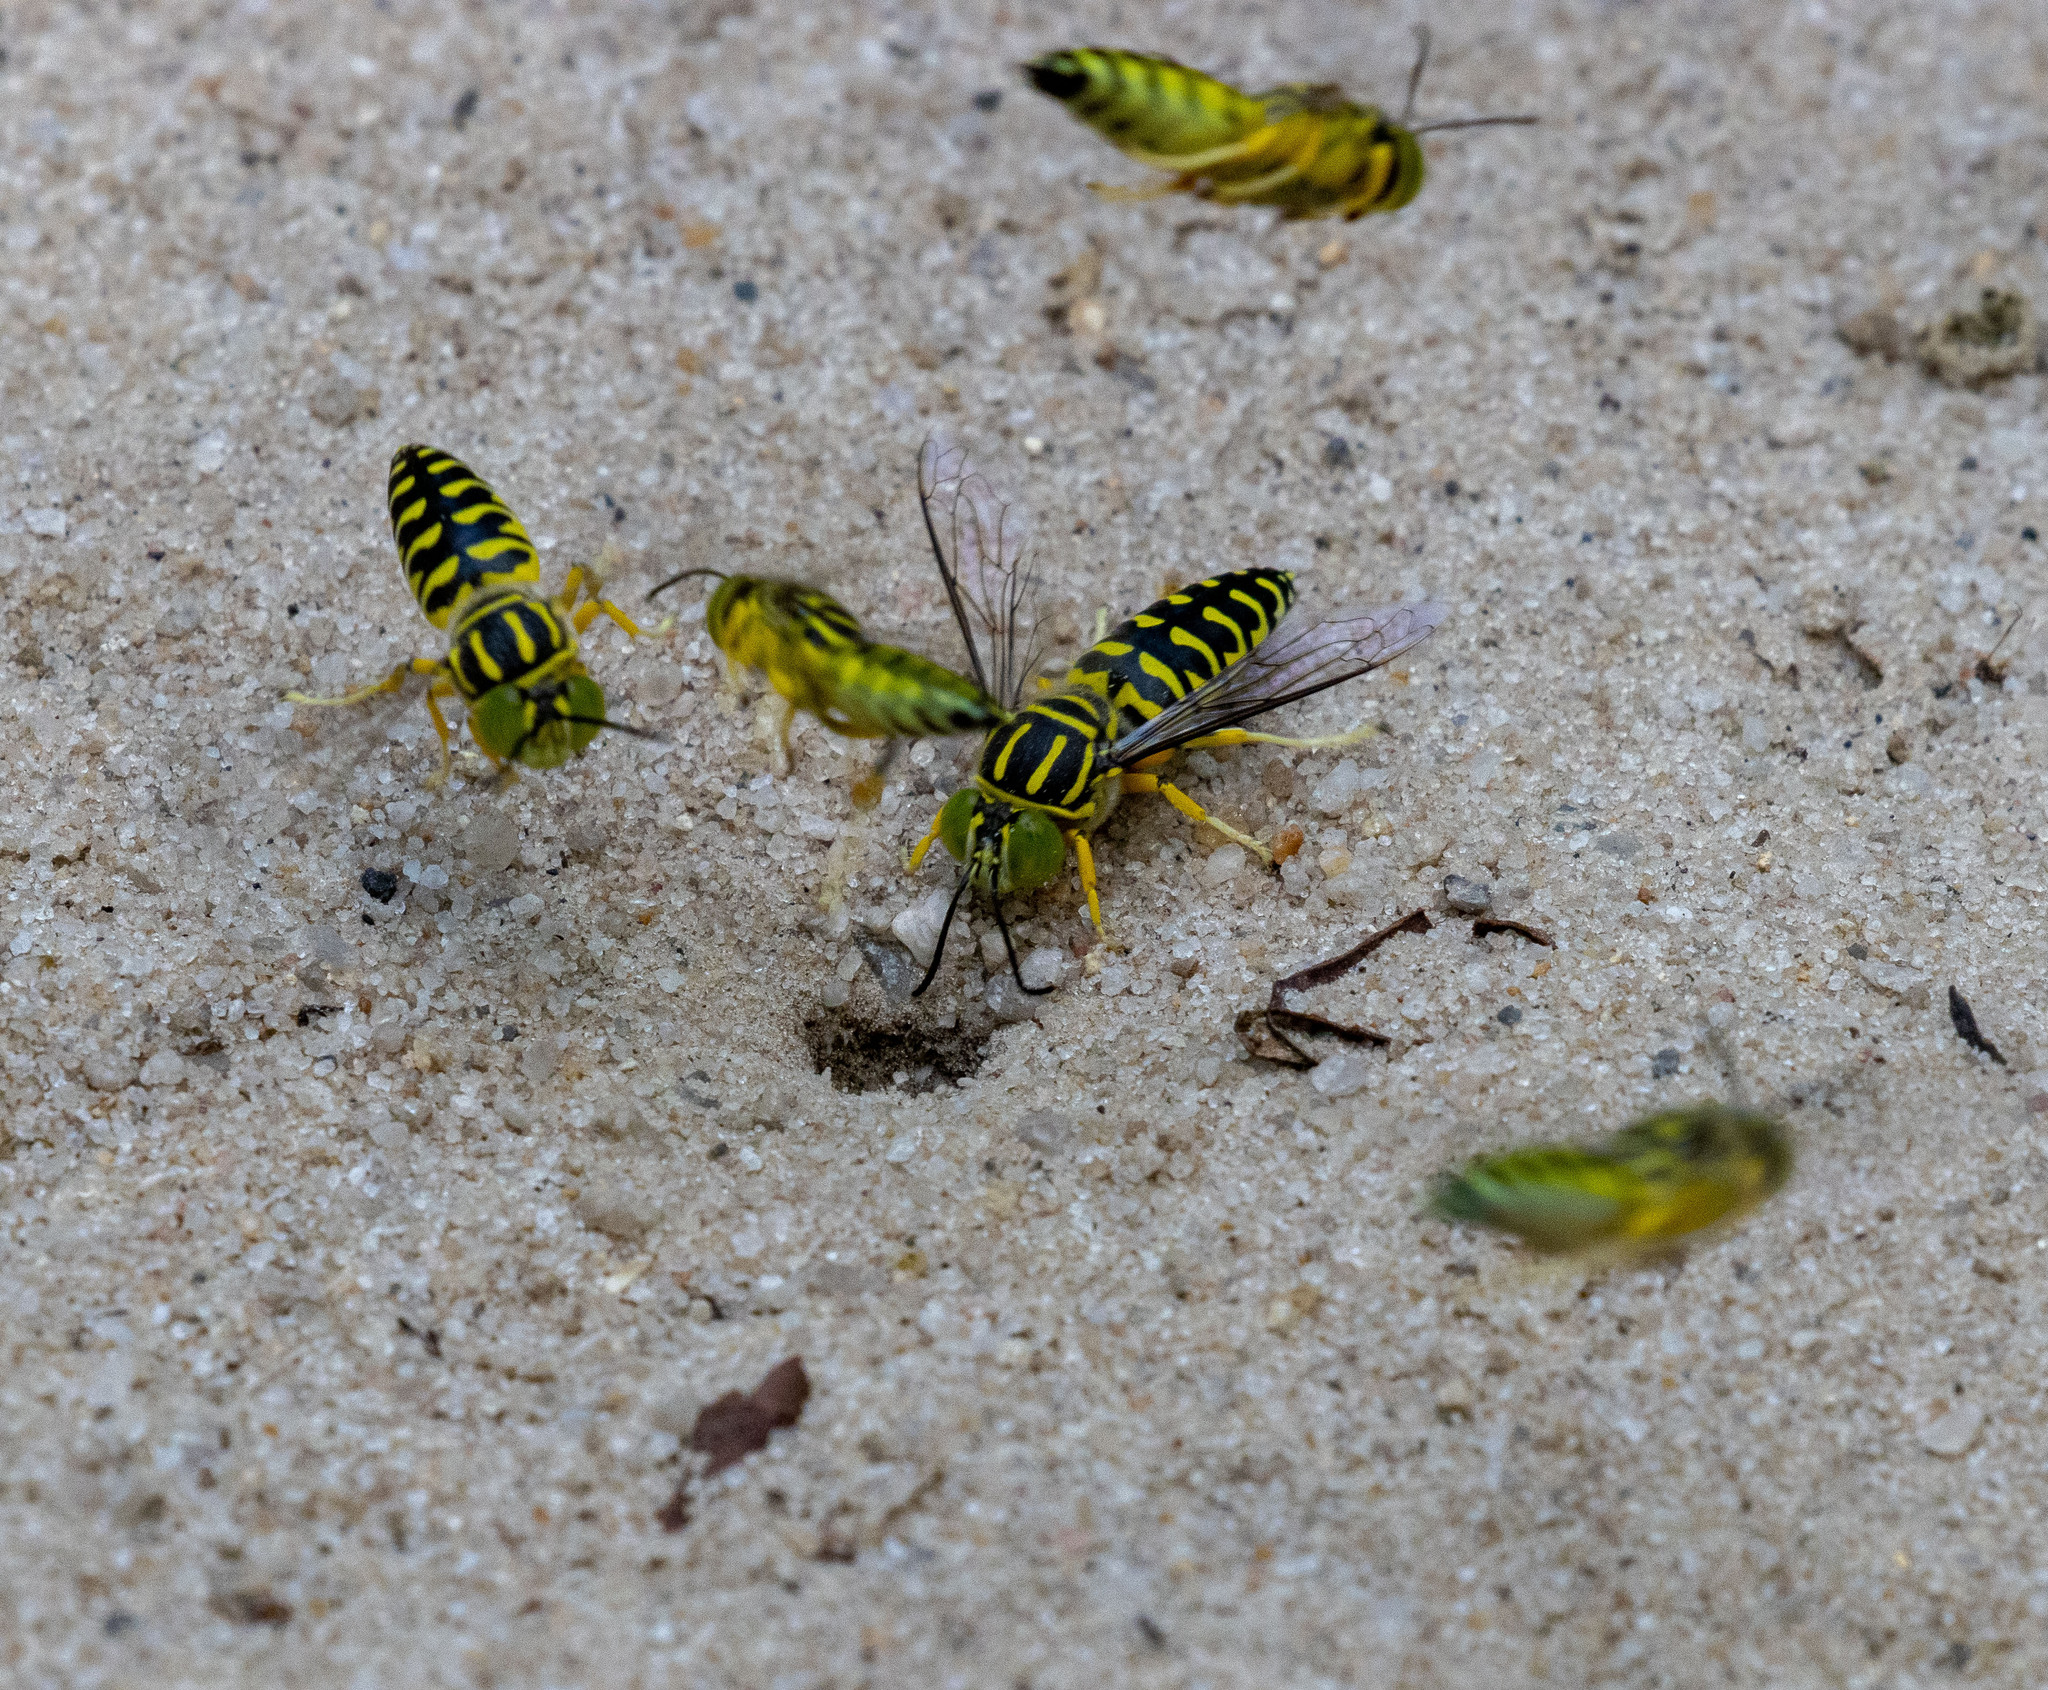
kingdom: Animalia
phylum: Arthropoda
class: Insecta
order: Hymenoptera
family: Crabronidae
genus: Stictia
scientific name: Stictia signata
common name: Sand wasp
